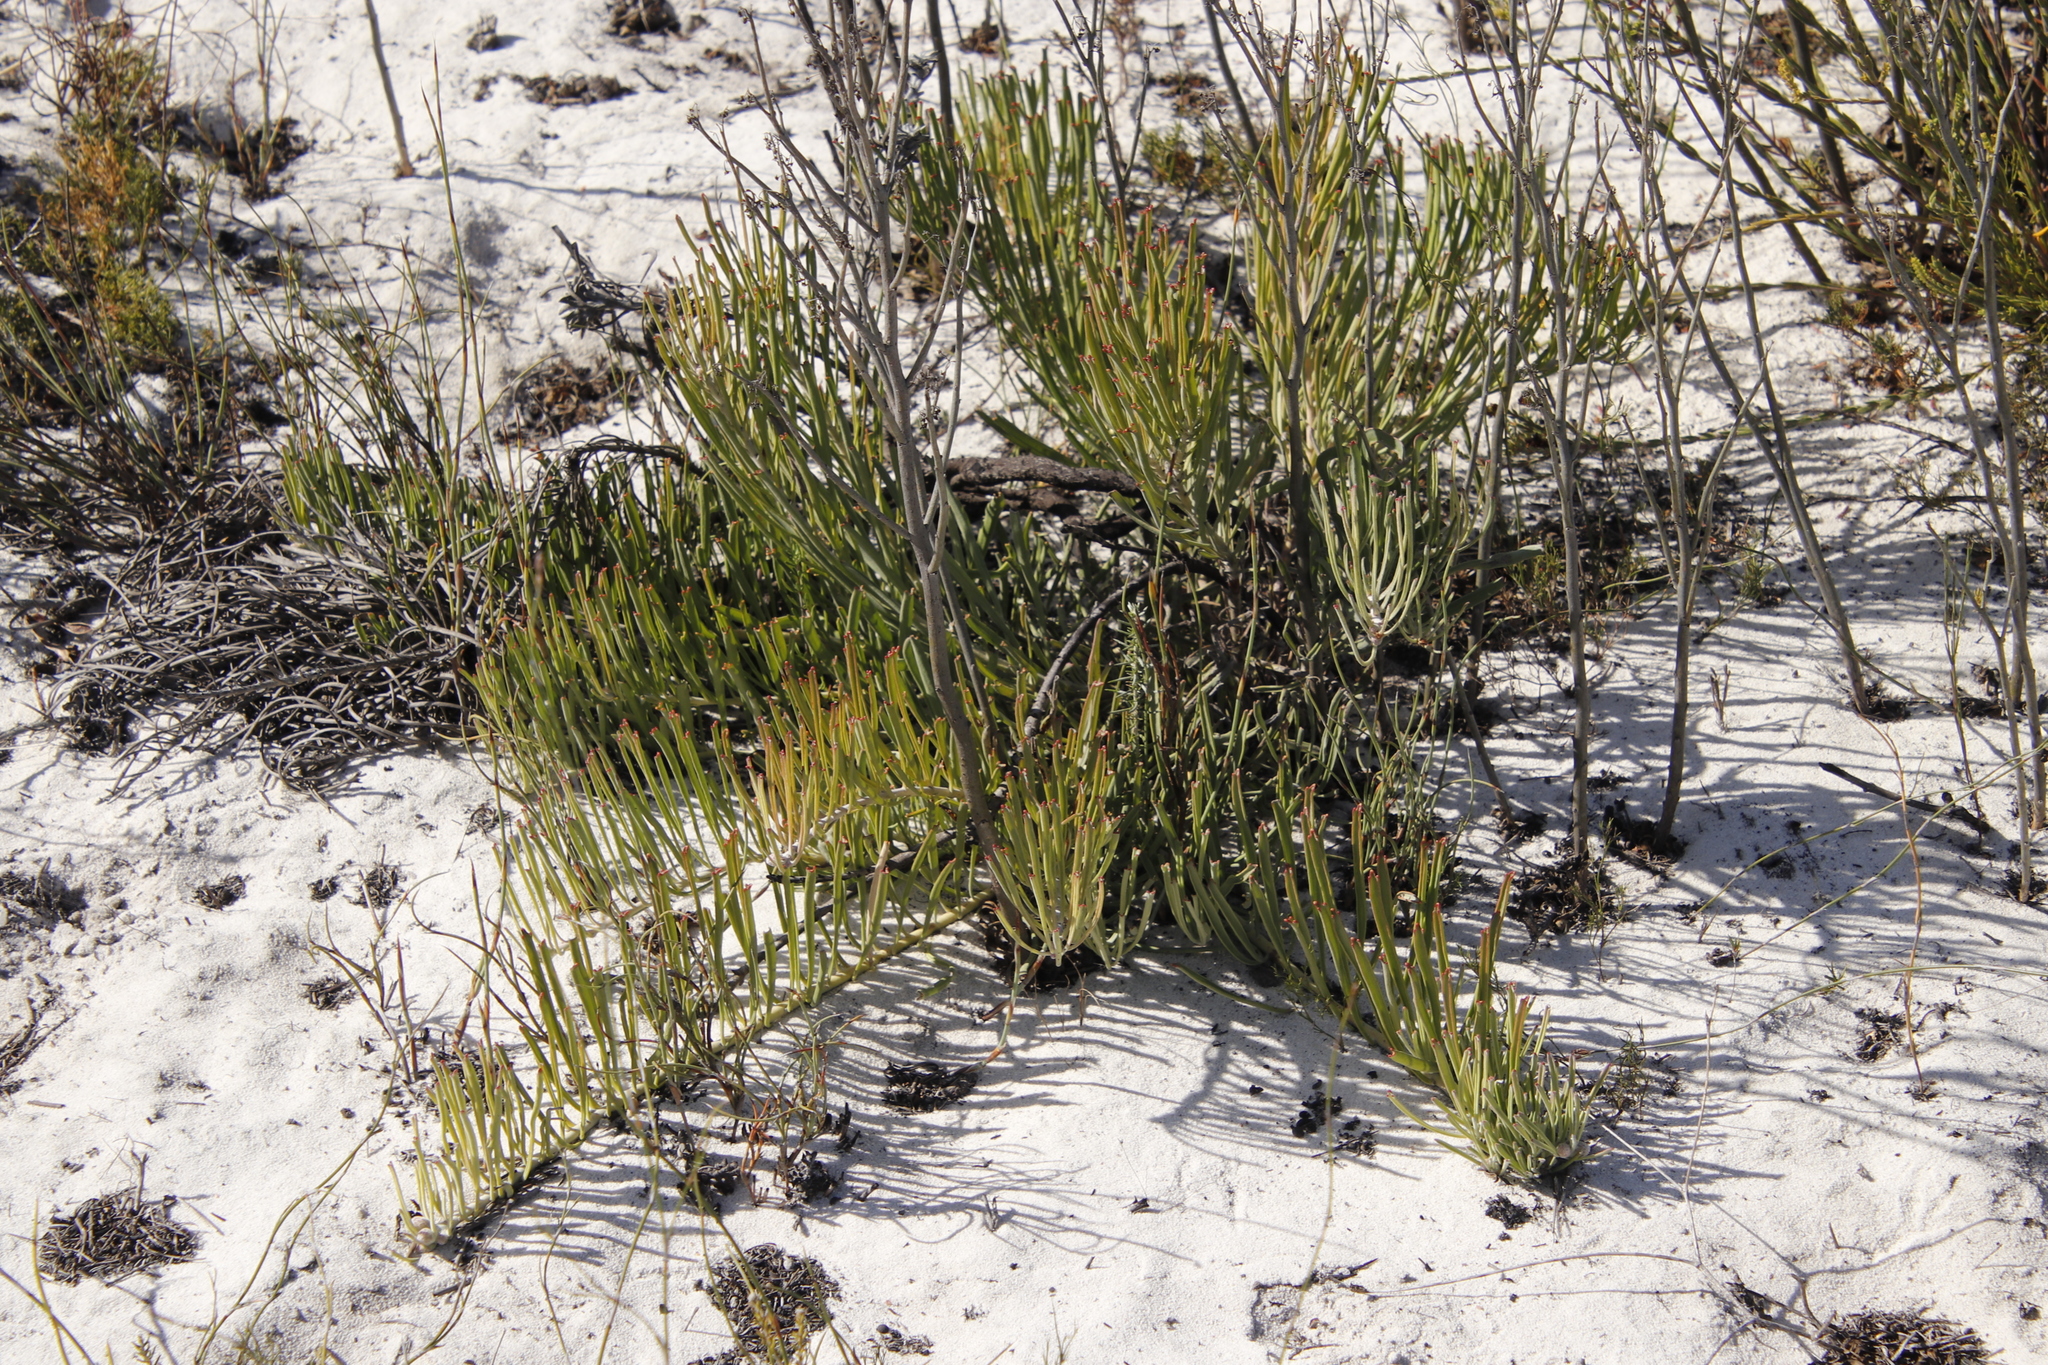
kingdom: Plantae
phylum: Tracheophyta
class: Magnoliopsida
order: Proteales
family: Proteaceae
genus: Leucospermum
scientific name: Leucospermum hypophyllocarpodendron
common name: Snakestem pincushion
